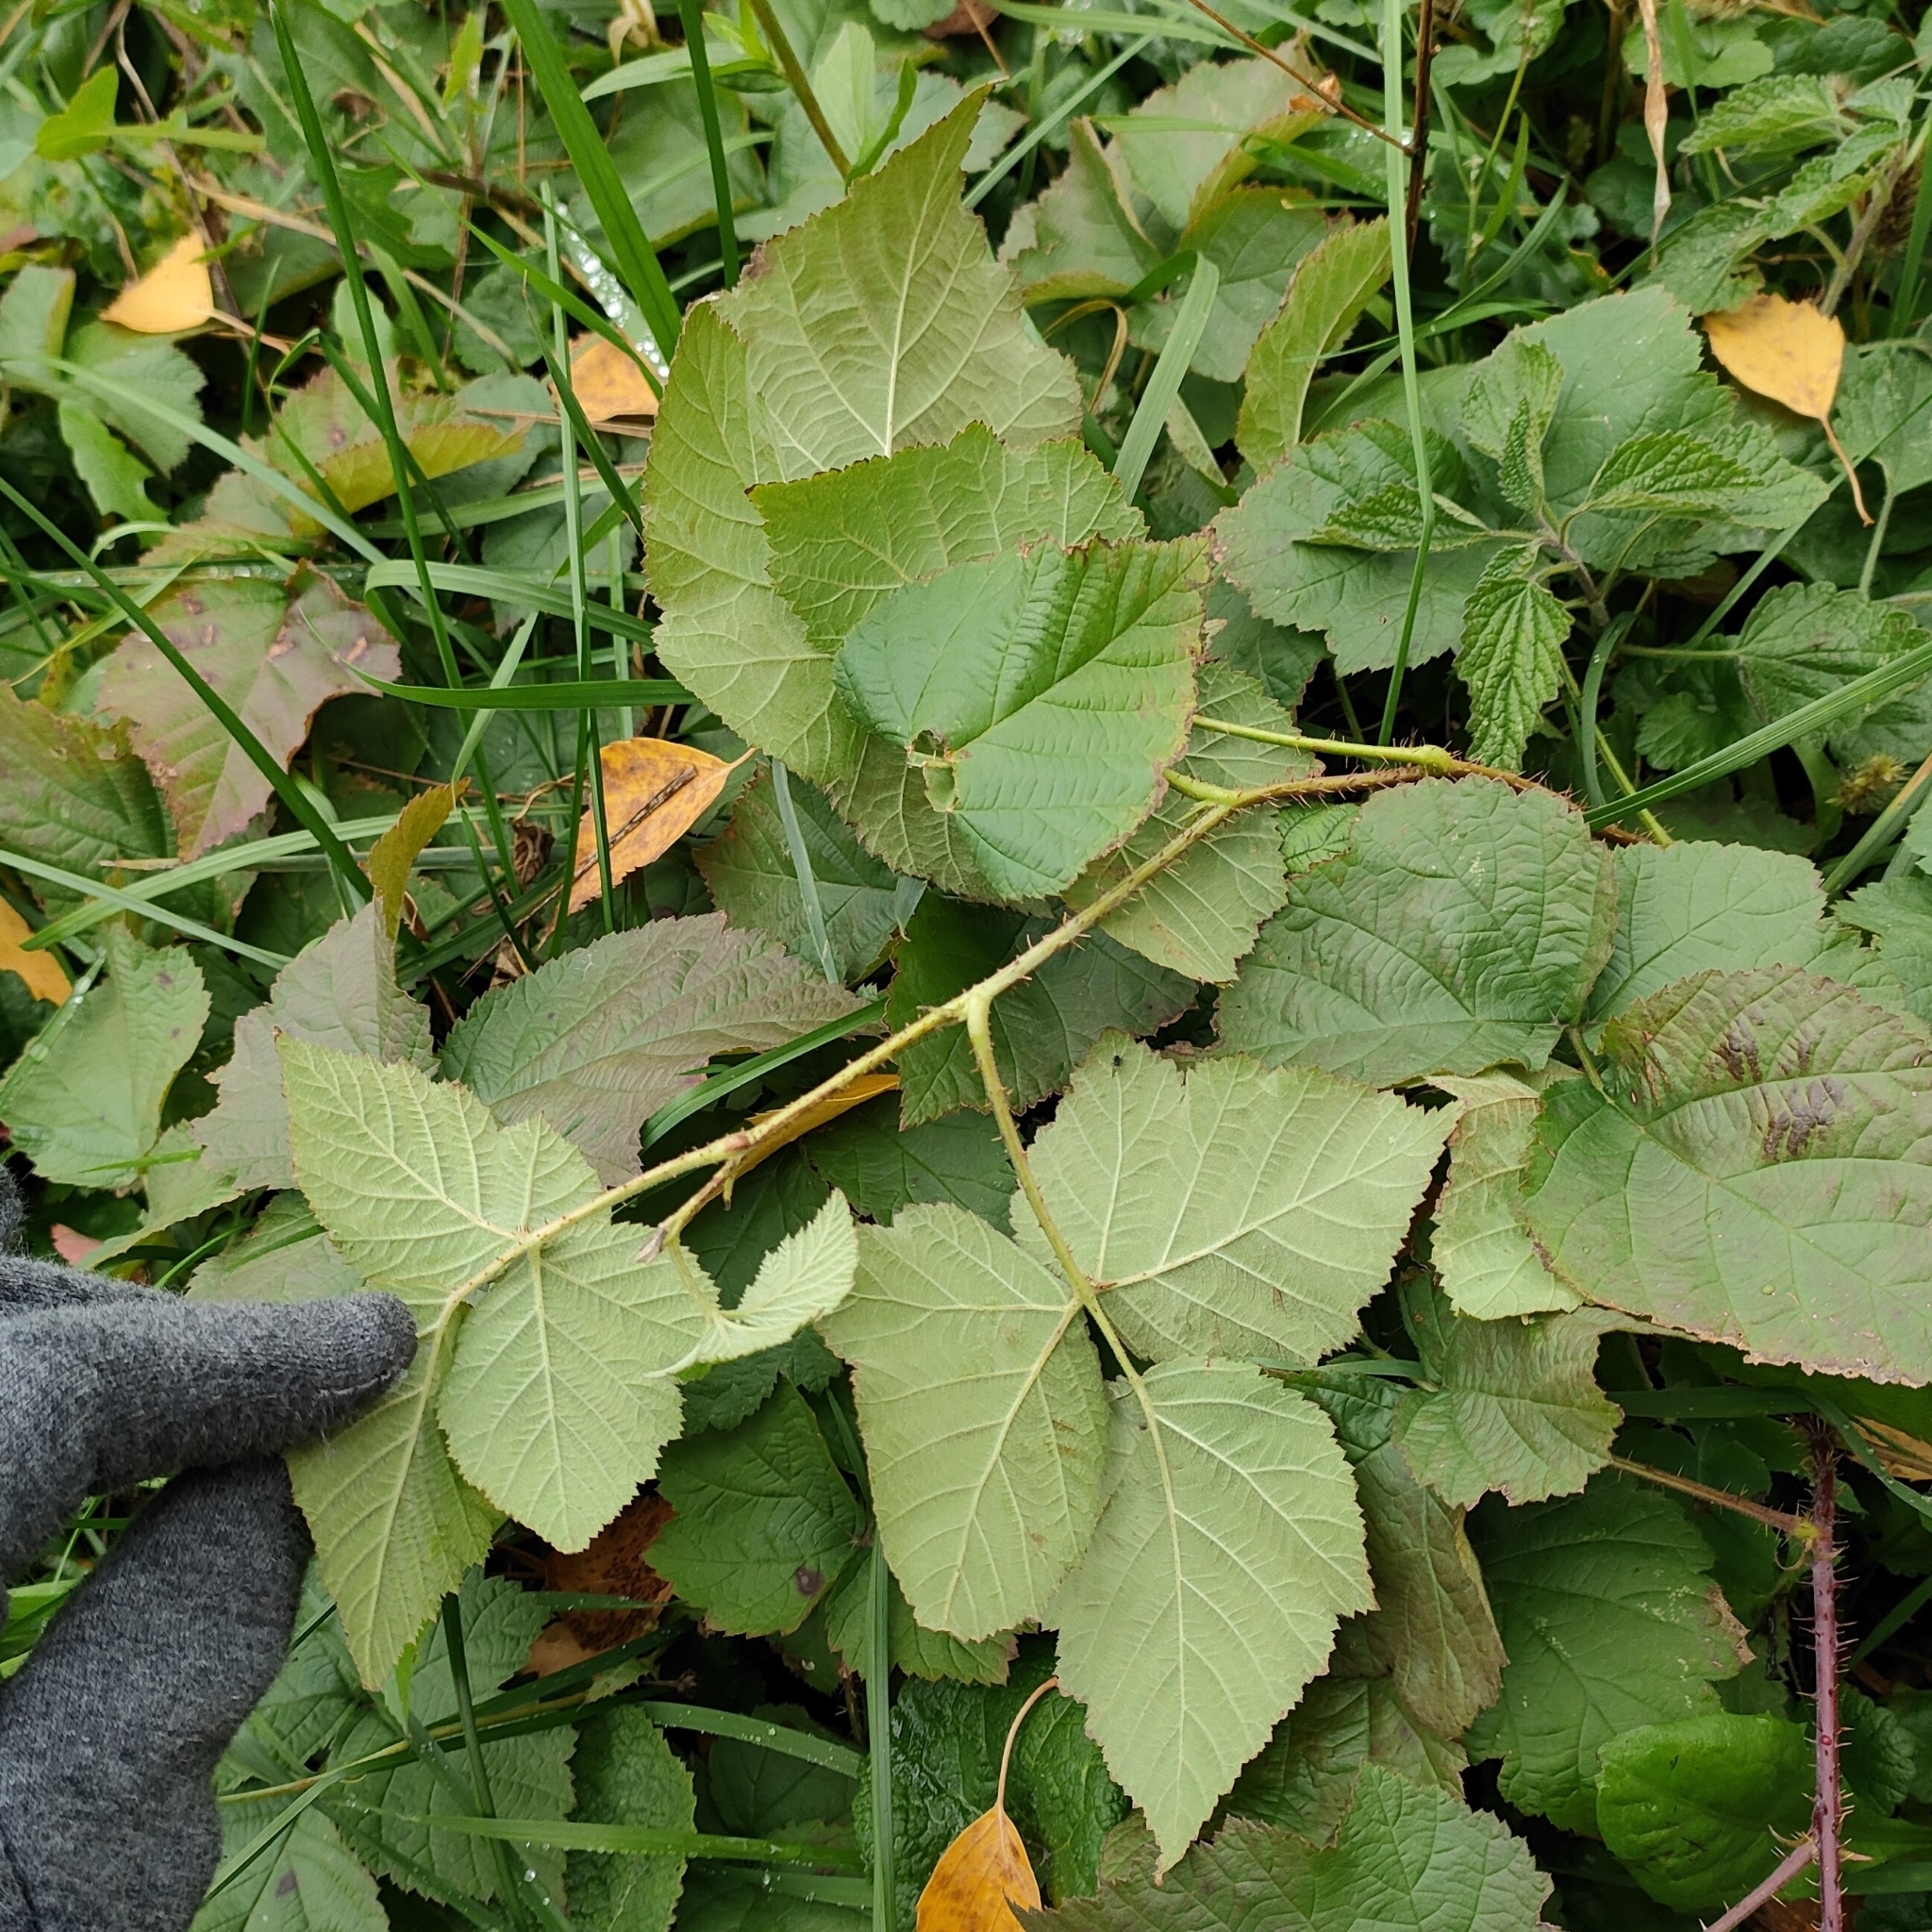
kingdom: Plantae
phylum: Tracheophyta
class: Magnoliopsida
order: Rosales
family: Rosaceae
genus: Rubus
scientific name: Rubus caesius
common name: Dewberry
